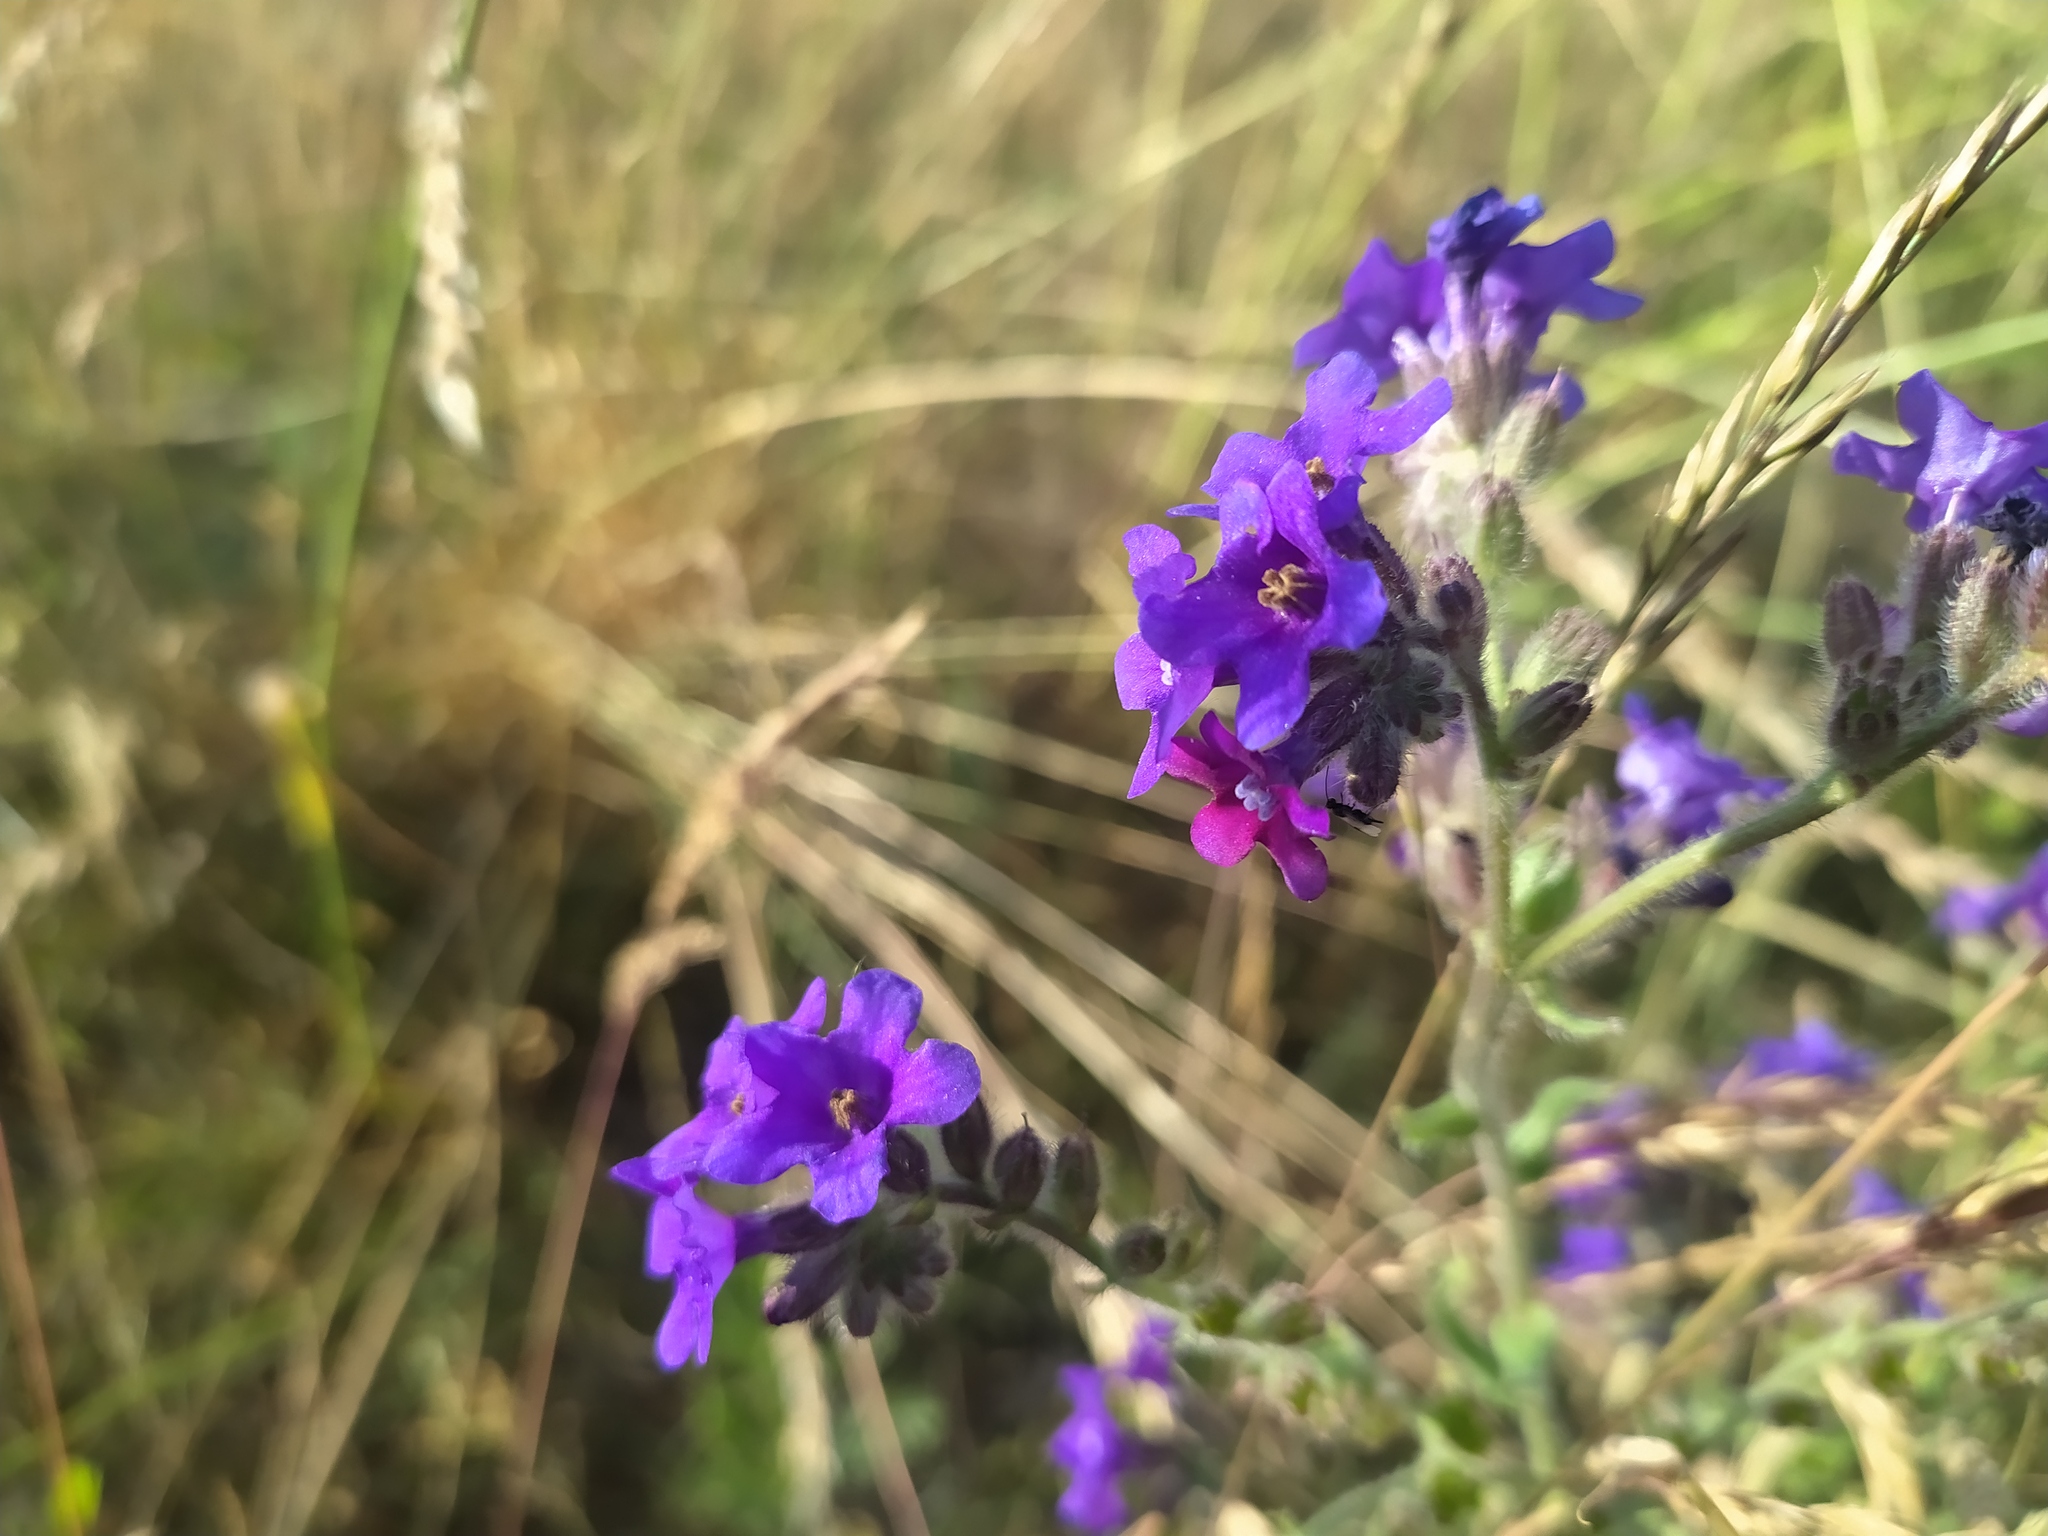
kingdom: Plantae
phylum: Tracheophyta
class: Magnoliopsida
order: Boraginales
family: Boraginaceae
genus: Anchusa
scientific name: Anchusa officinalis
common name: Alkanet
